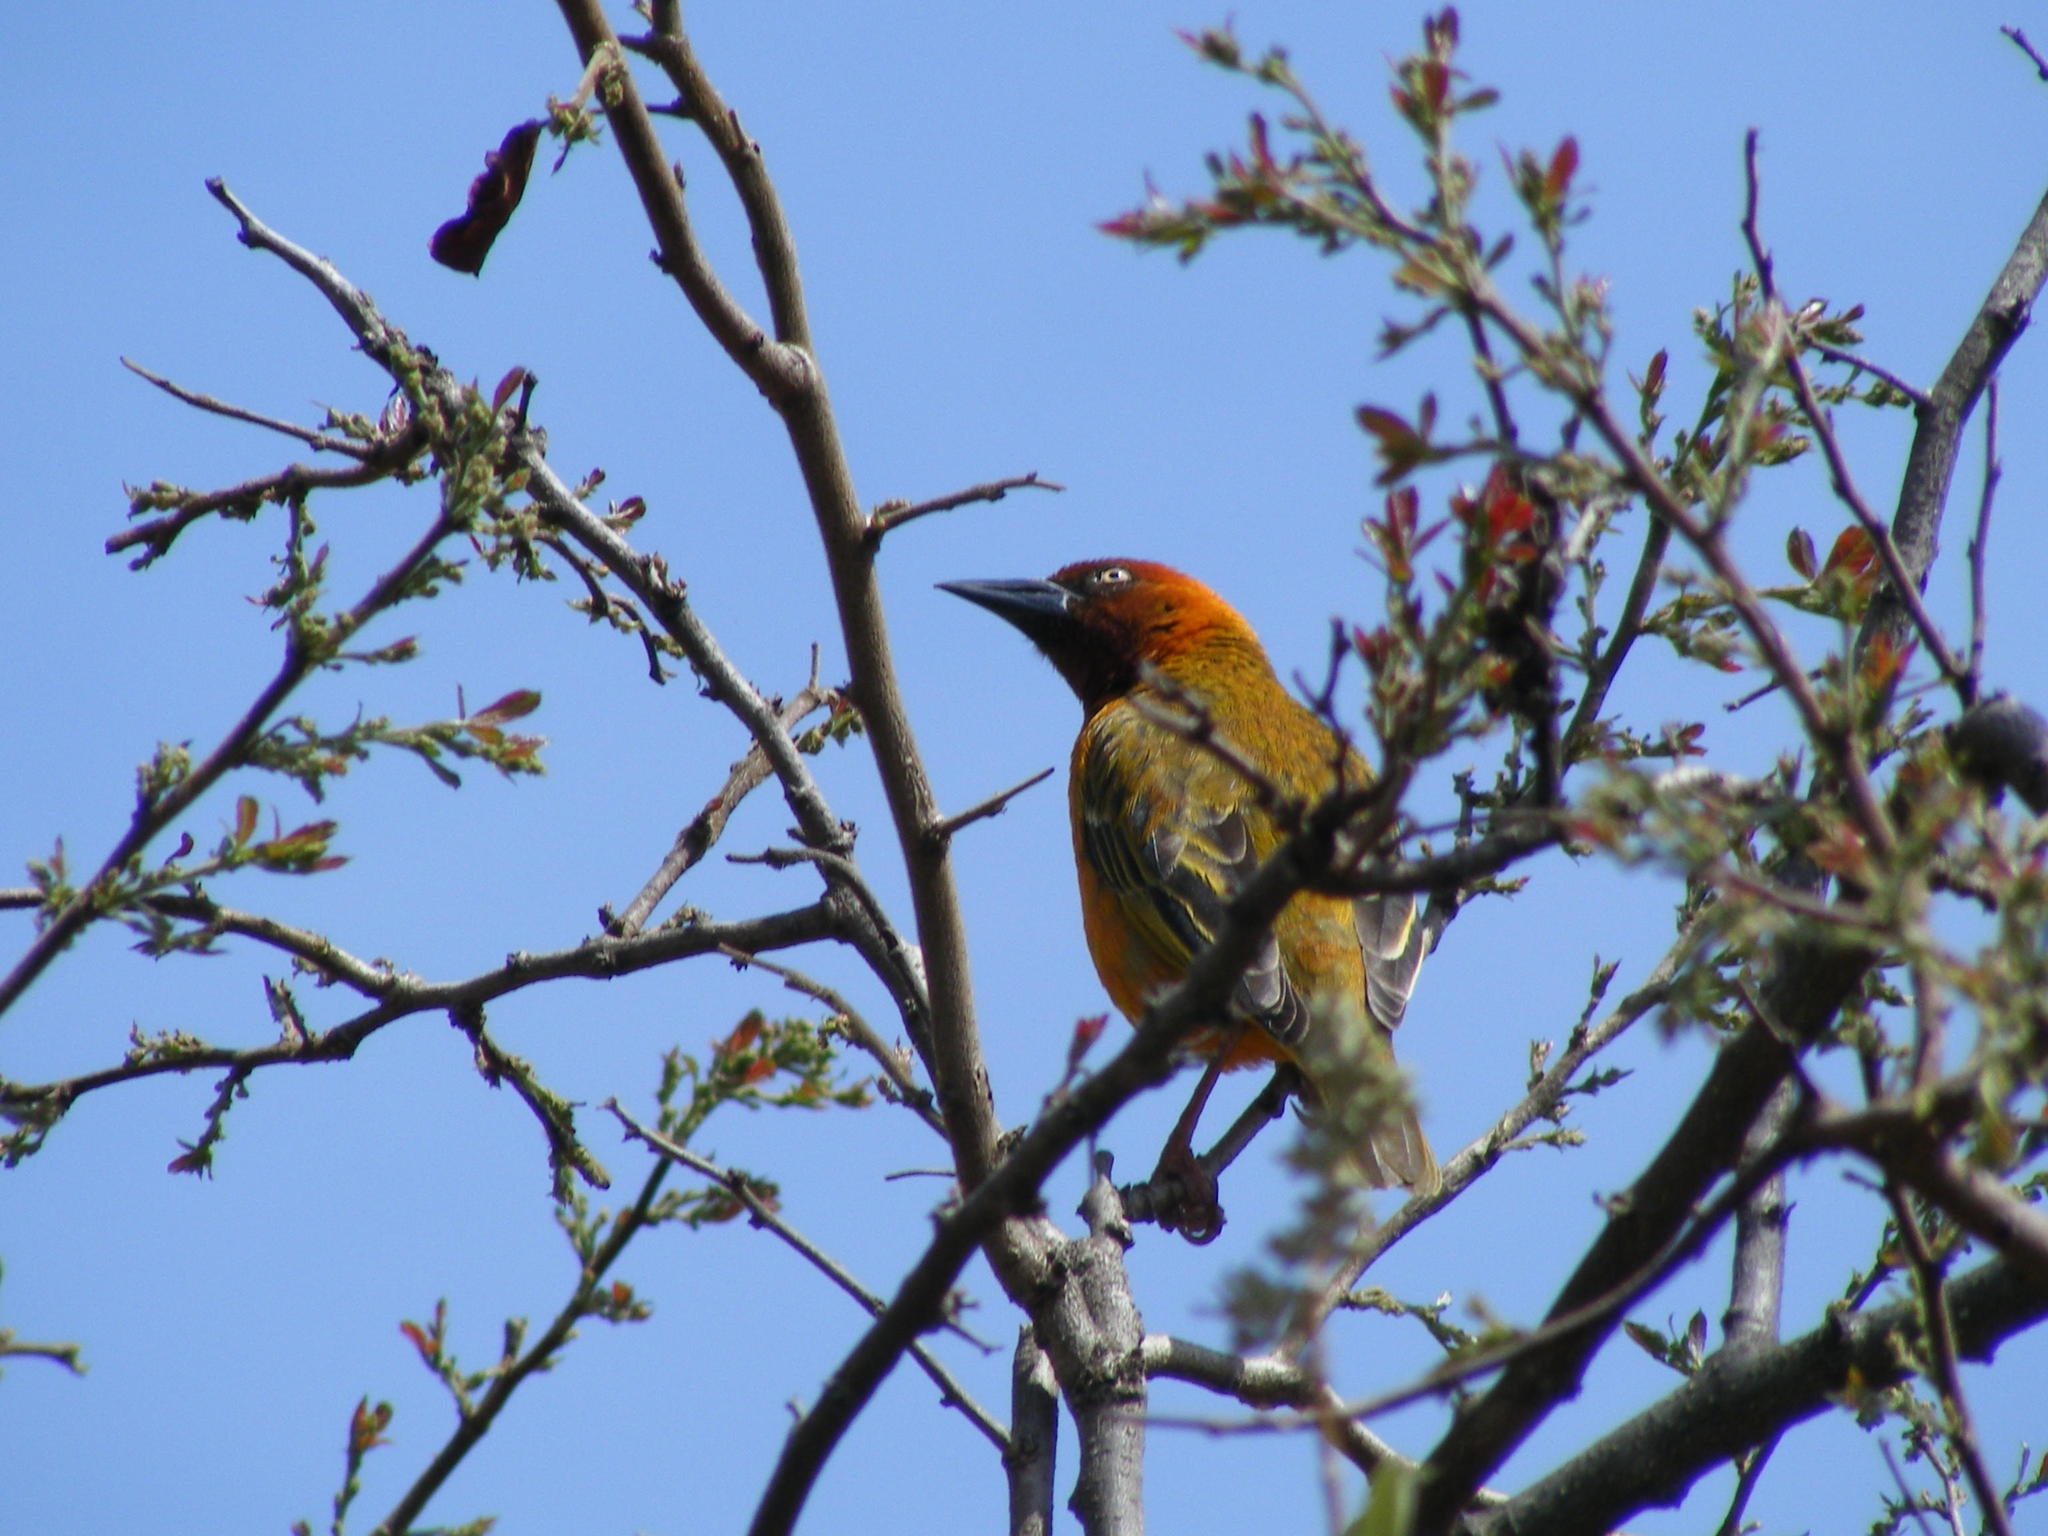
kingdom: Animalia
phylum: Chordata
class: Aves
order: Passeriformes
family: Ploceidae
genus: Ploceus
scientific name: Ploceus capensis
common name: Cape weaver
